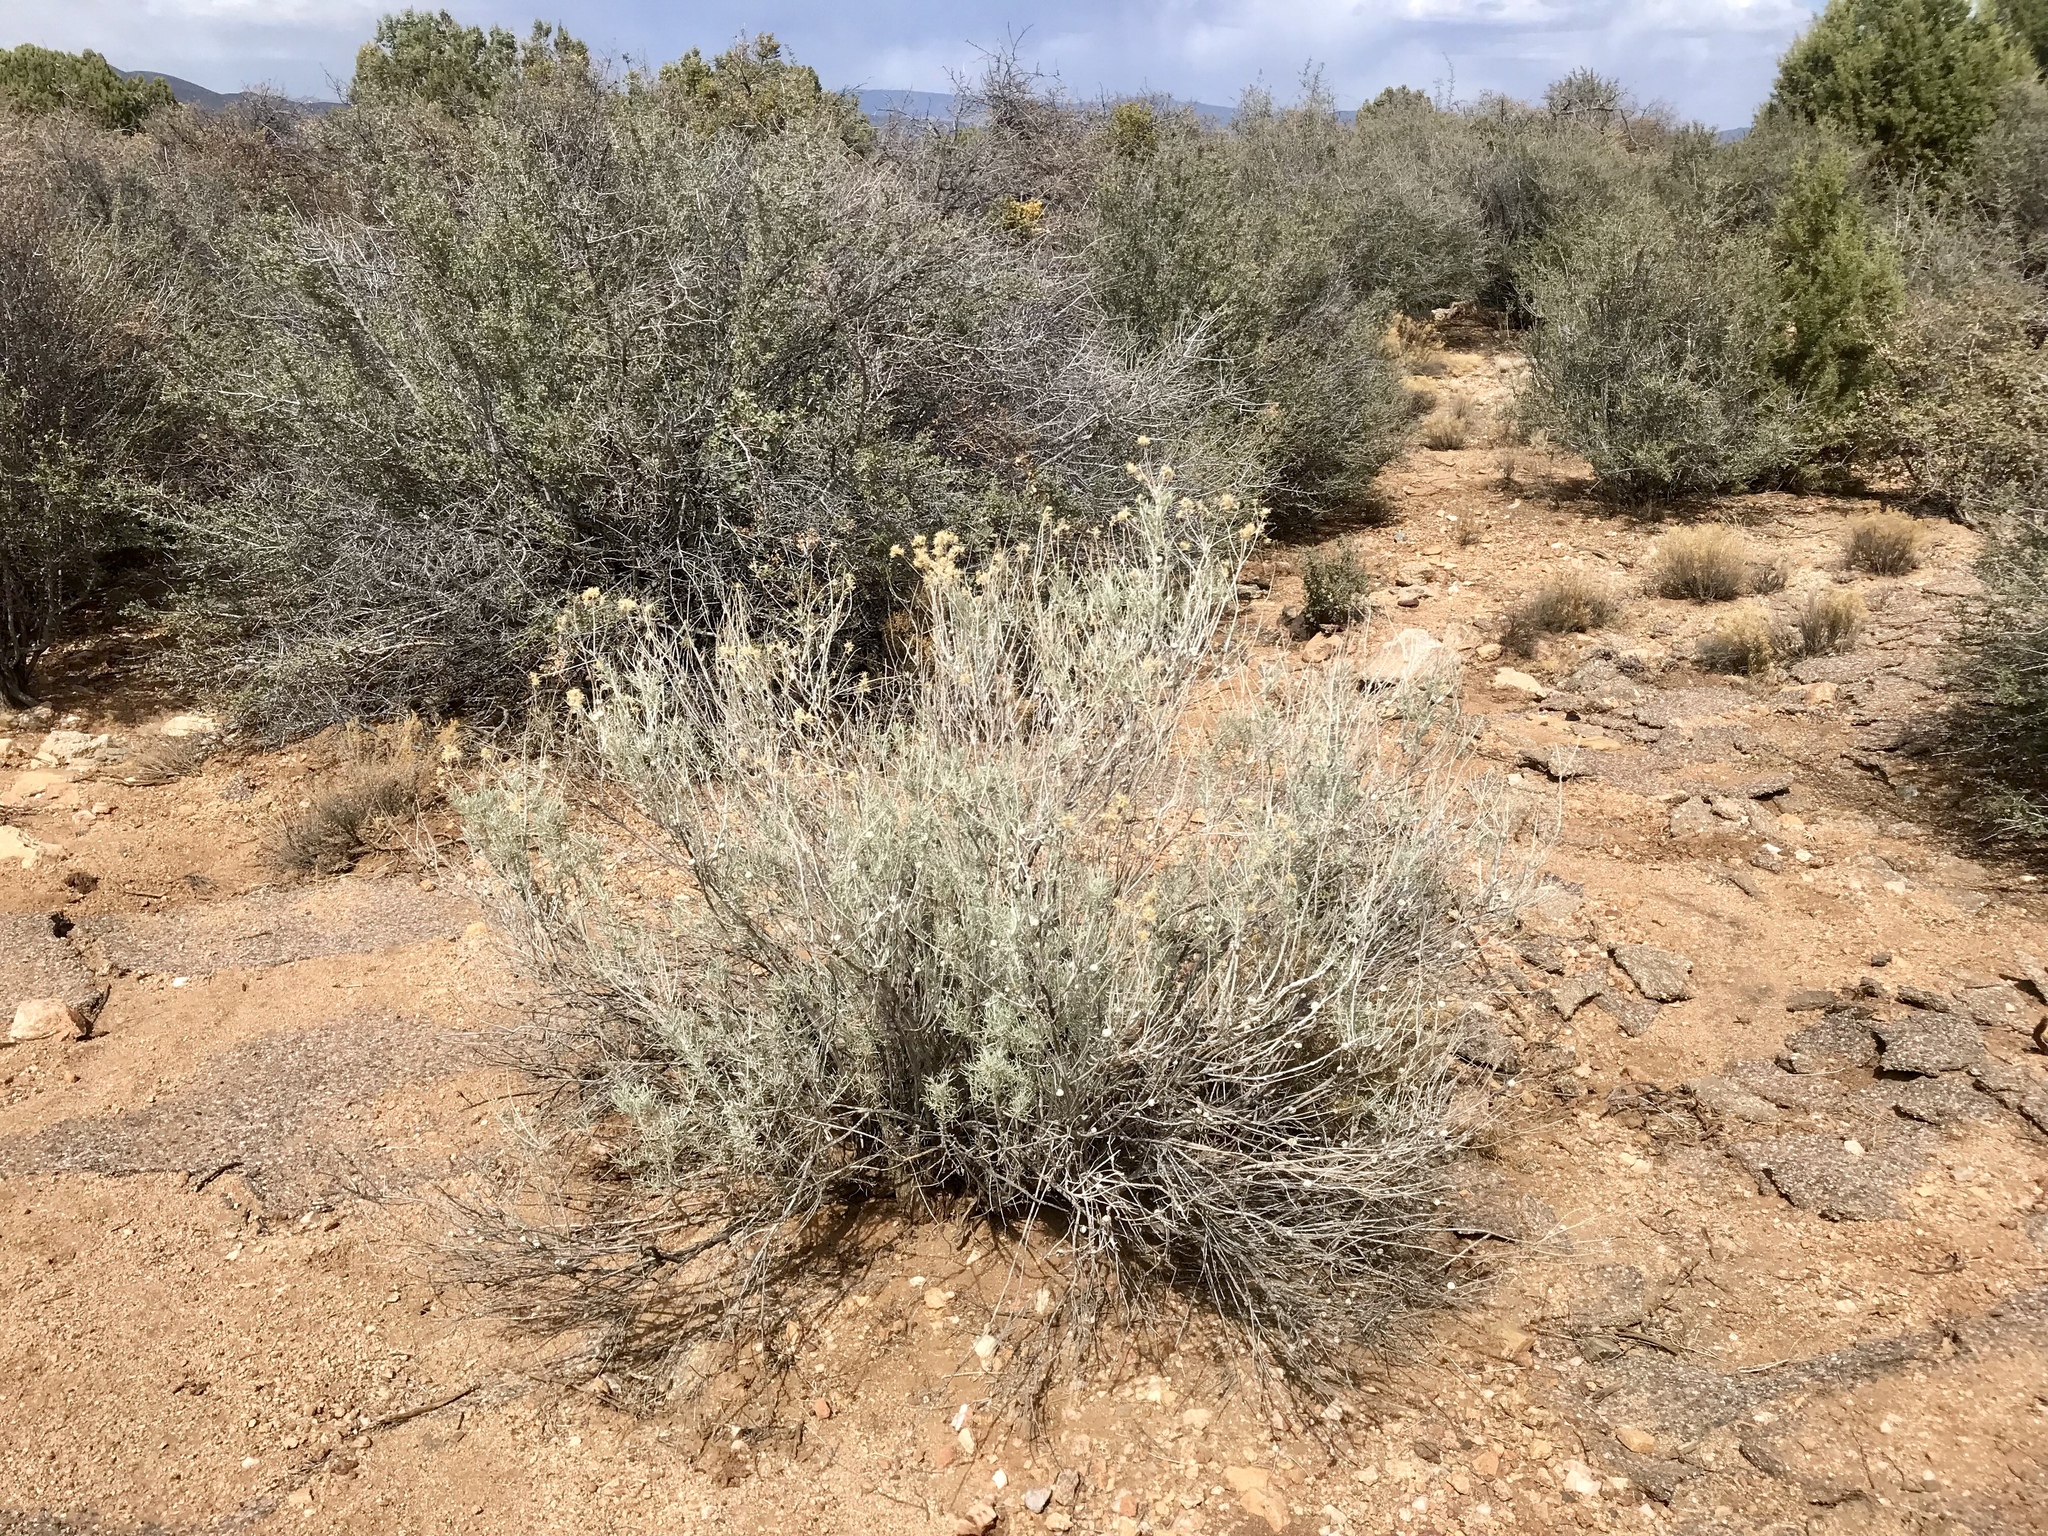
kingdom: Plantae
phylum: Tracheophyta
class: Magnoliopsida
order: Asterales
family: Asteraceae
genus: Ericameria
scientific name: Ericameria nauseosa
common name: Rubber rabbitbrush
